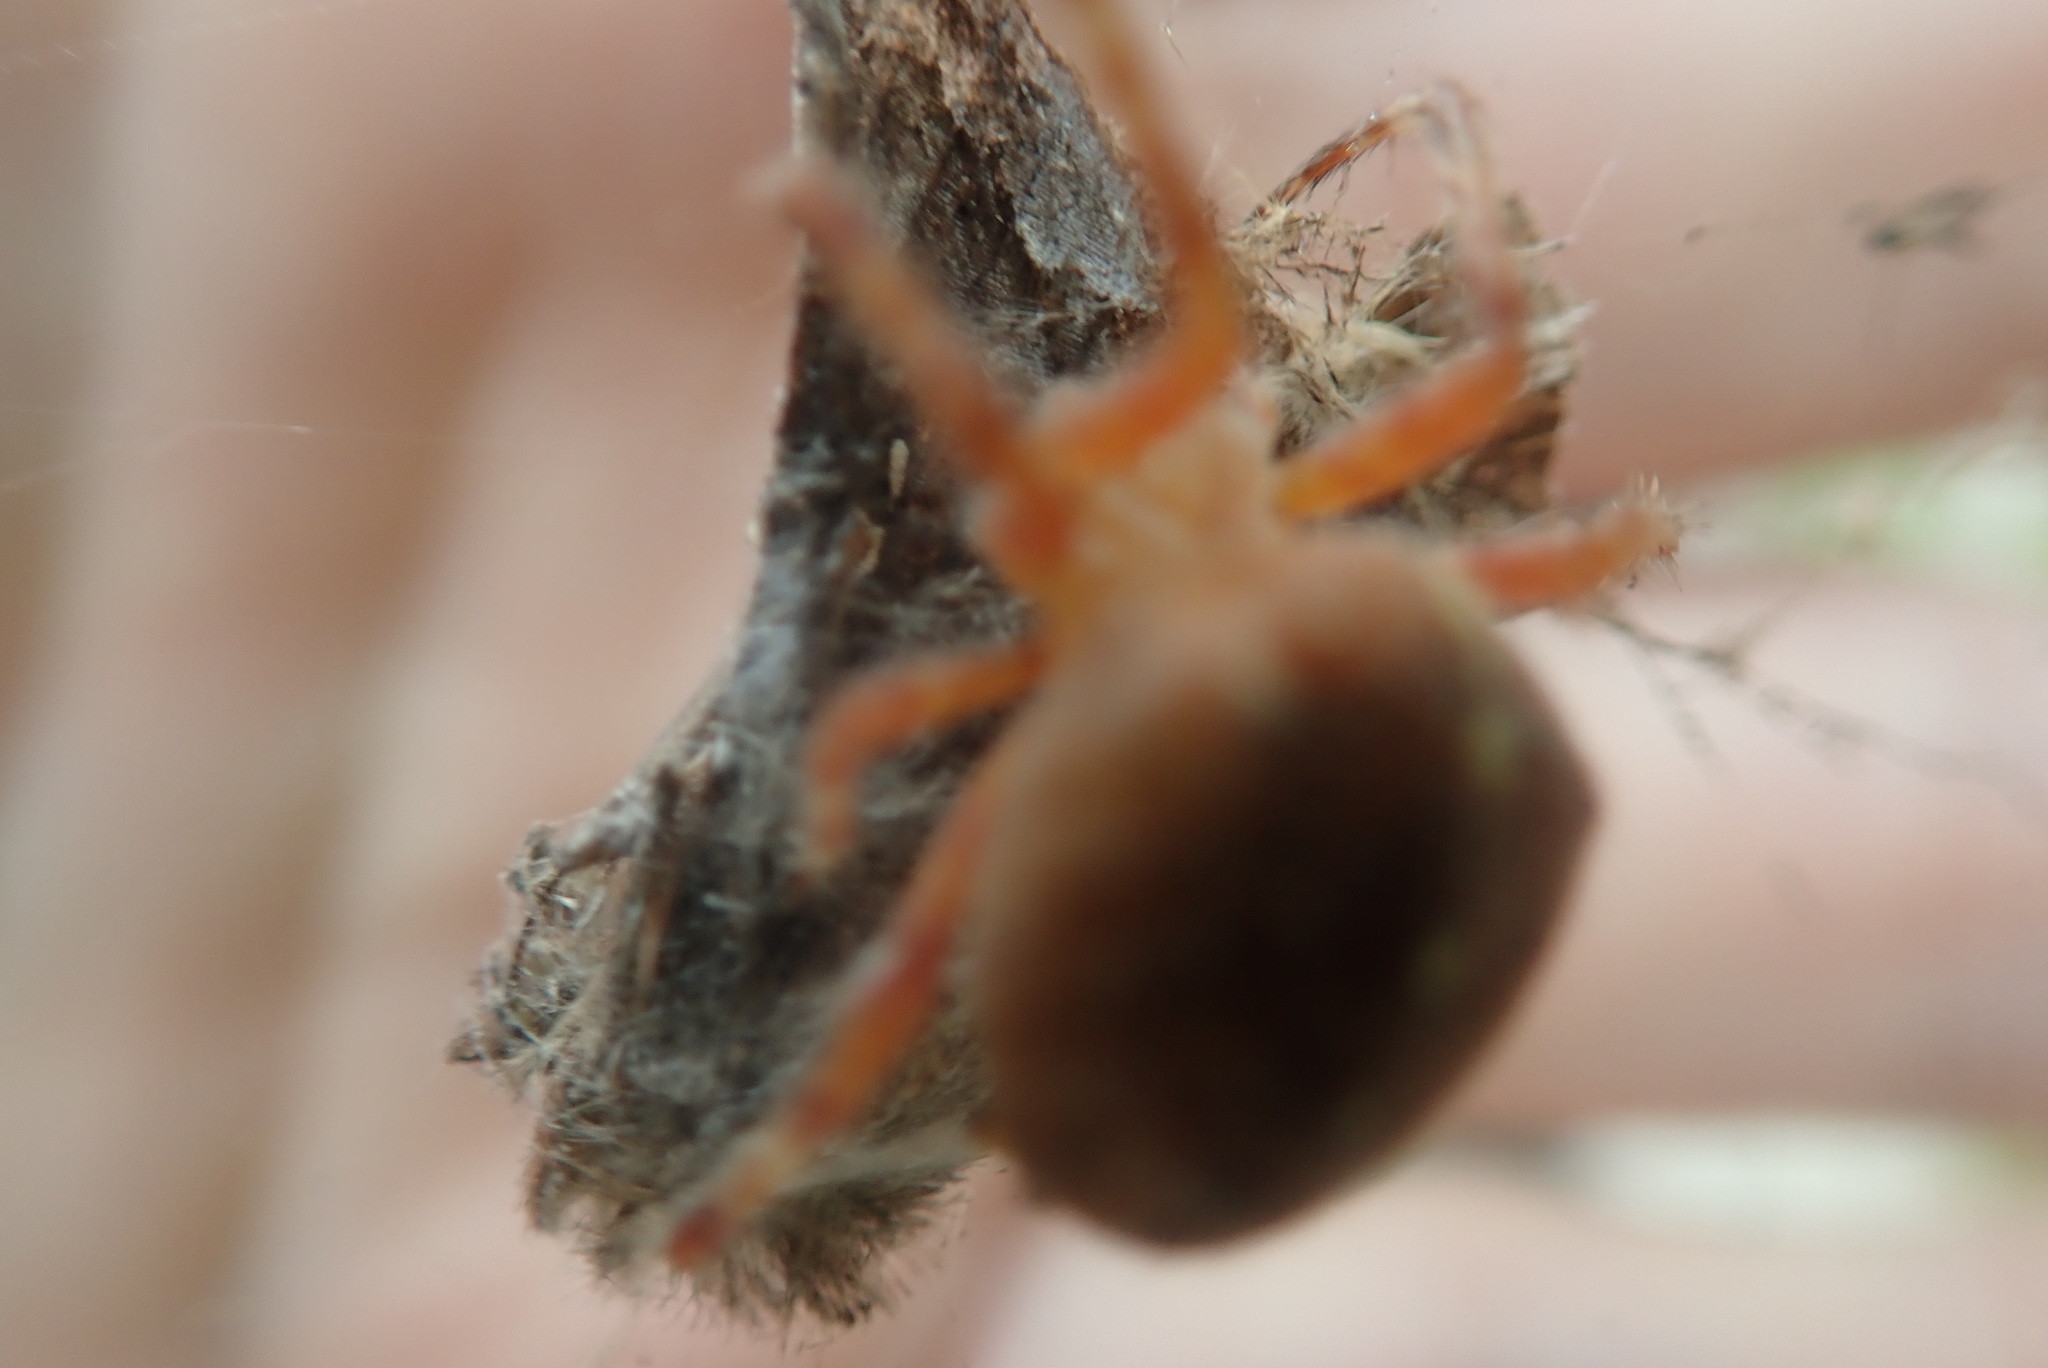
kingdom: Animalia
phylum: Arthropoda
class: Arachnida
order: Araneae
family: Araneidae
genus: Araneus
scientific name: Araneus diadematus
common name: Cross orbweaver
